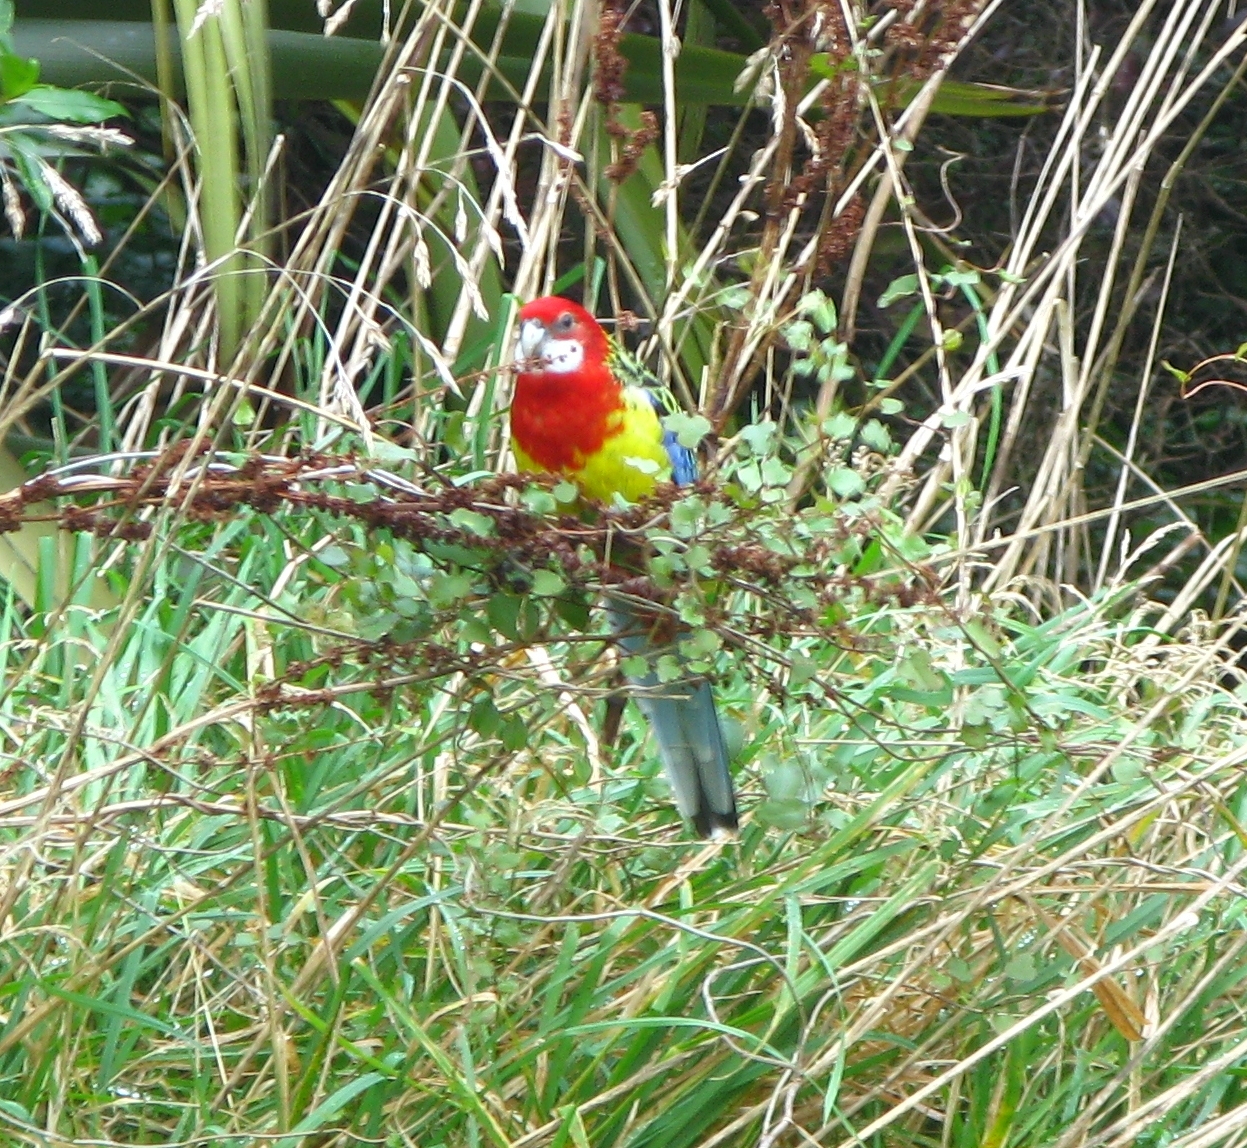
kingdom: Animalia
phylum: Chordata
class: Aves
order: Psittaciformes
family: Psittacidae
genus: Platycercus
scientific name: Platycercus eximius
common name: Eastern rosella
